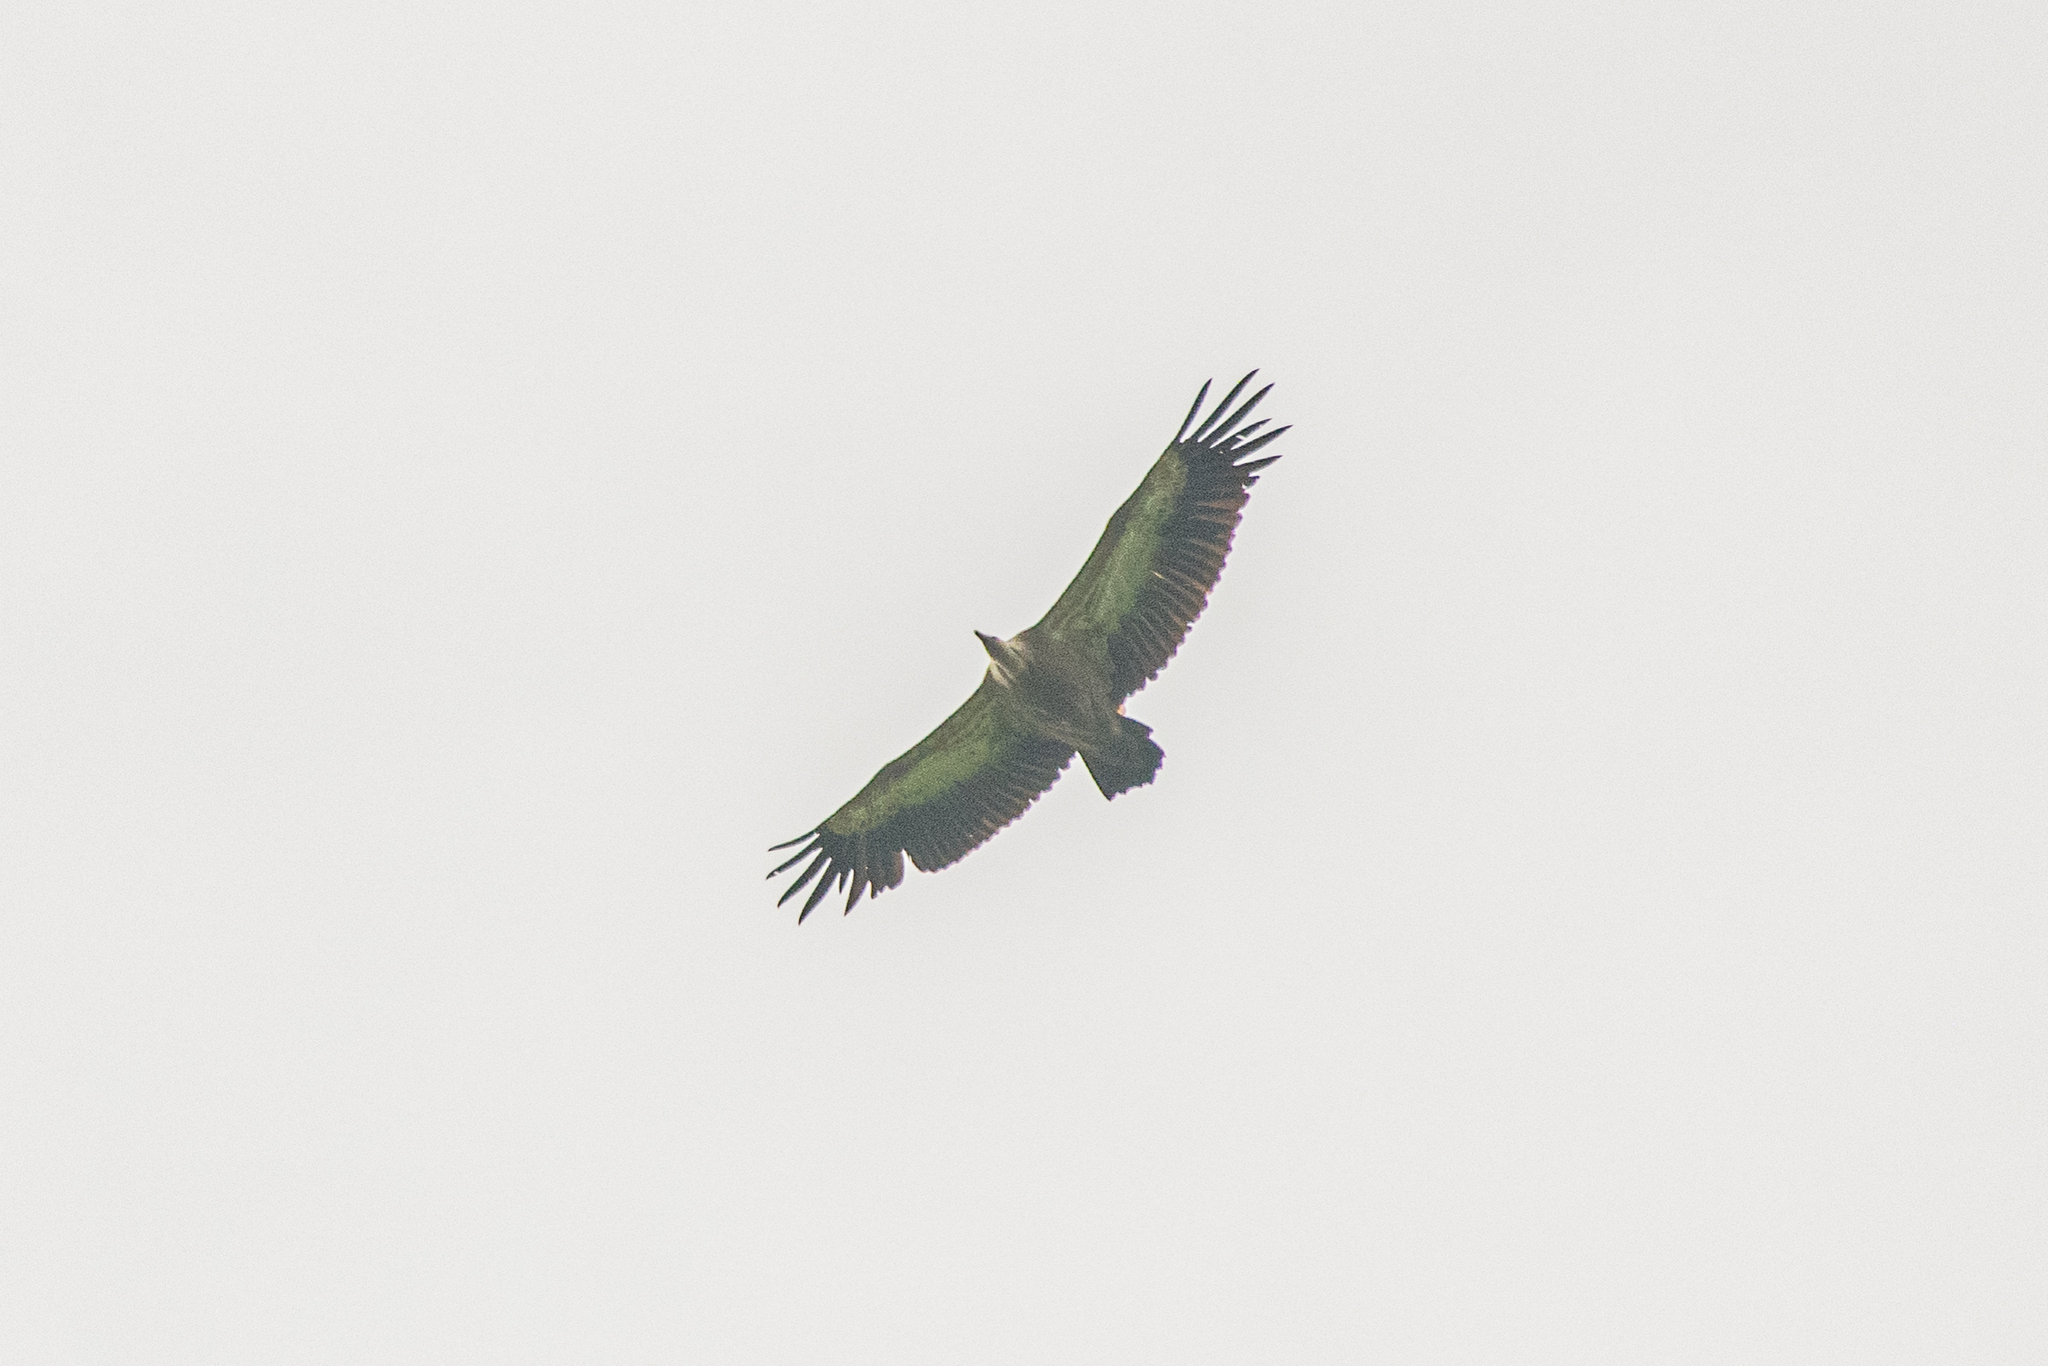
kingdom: Animalia
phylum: Chordata
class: Aves
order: Accipitriformes
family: Accipitridae
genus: Gyps
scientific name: Gyps fulvus
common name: Griffon vulture
